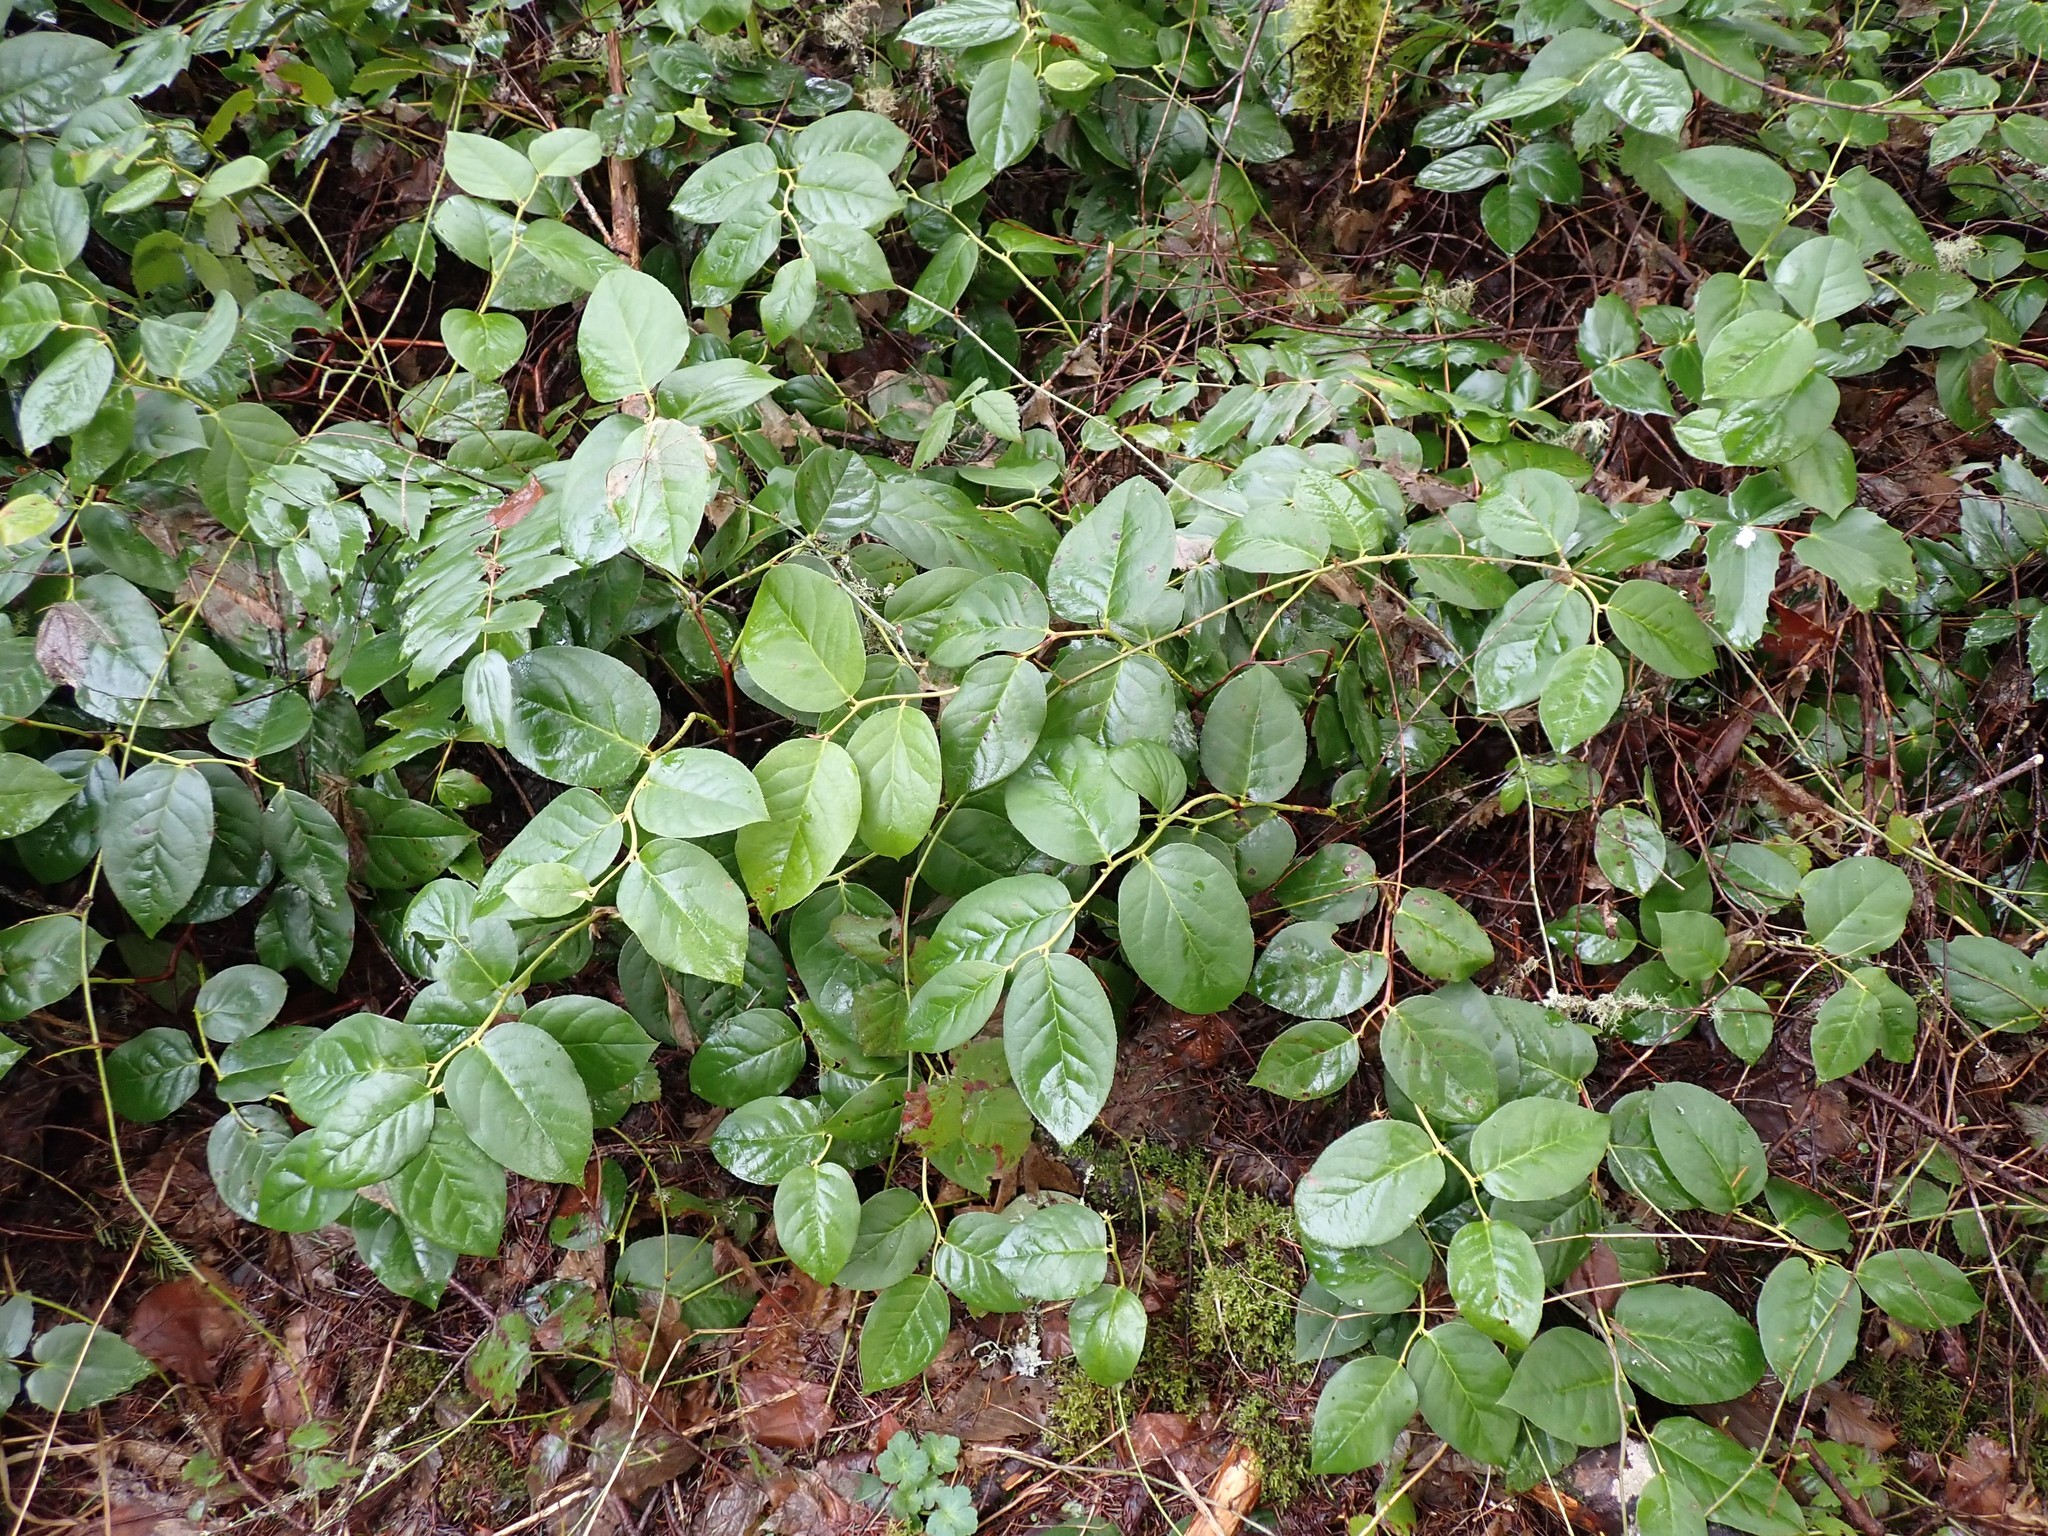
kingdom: Plantae
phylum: Tracheophyta
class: Magnoliopsida
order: Ericales
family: Ericaceae
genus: Gaultheria
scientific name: Gaultheria shallon
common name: Shallon
